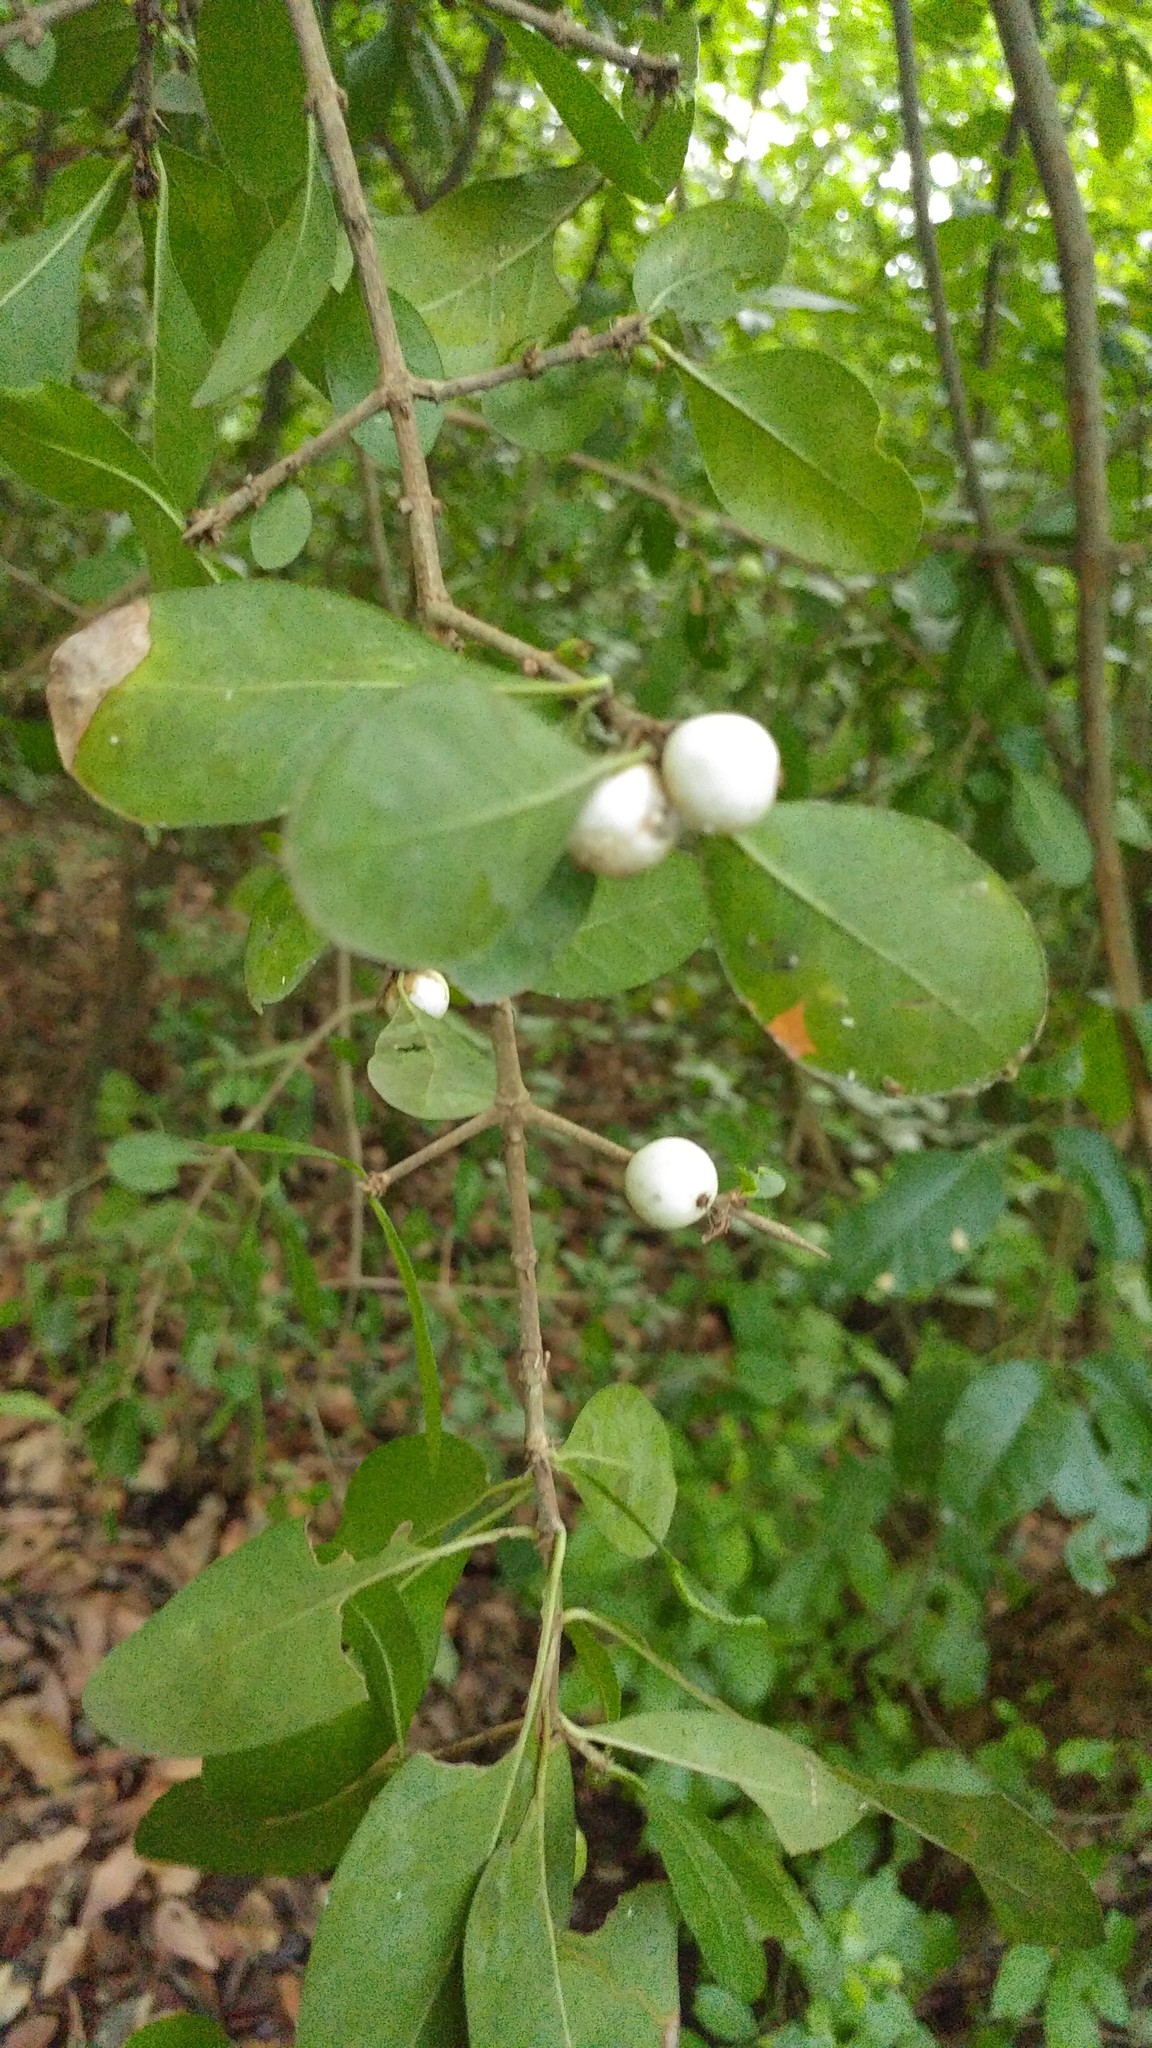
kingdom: Plantae
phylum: Tracheophyta
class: Magnoliopsida
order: Gentianales
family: Rubiaceae
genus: Randia
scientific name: Randia aculeata
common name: Inkberry
